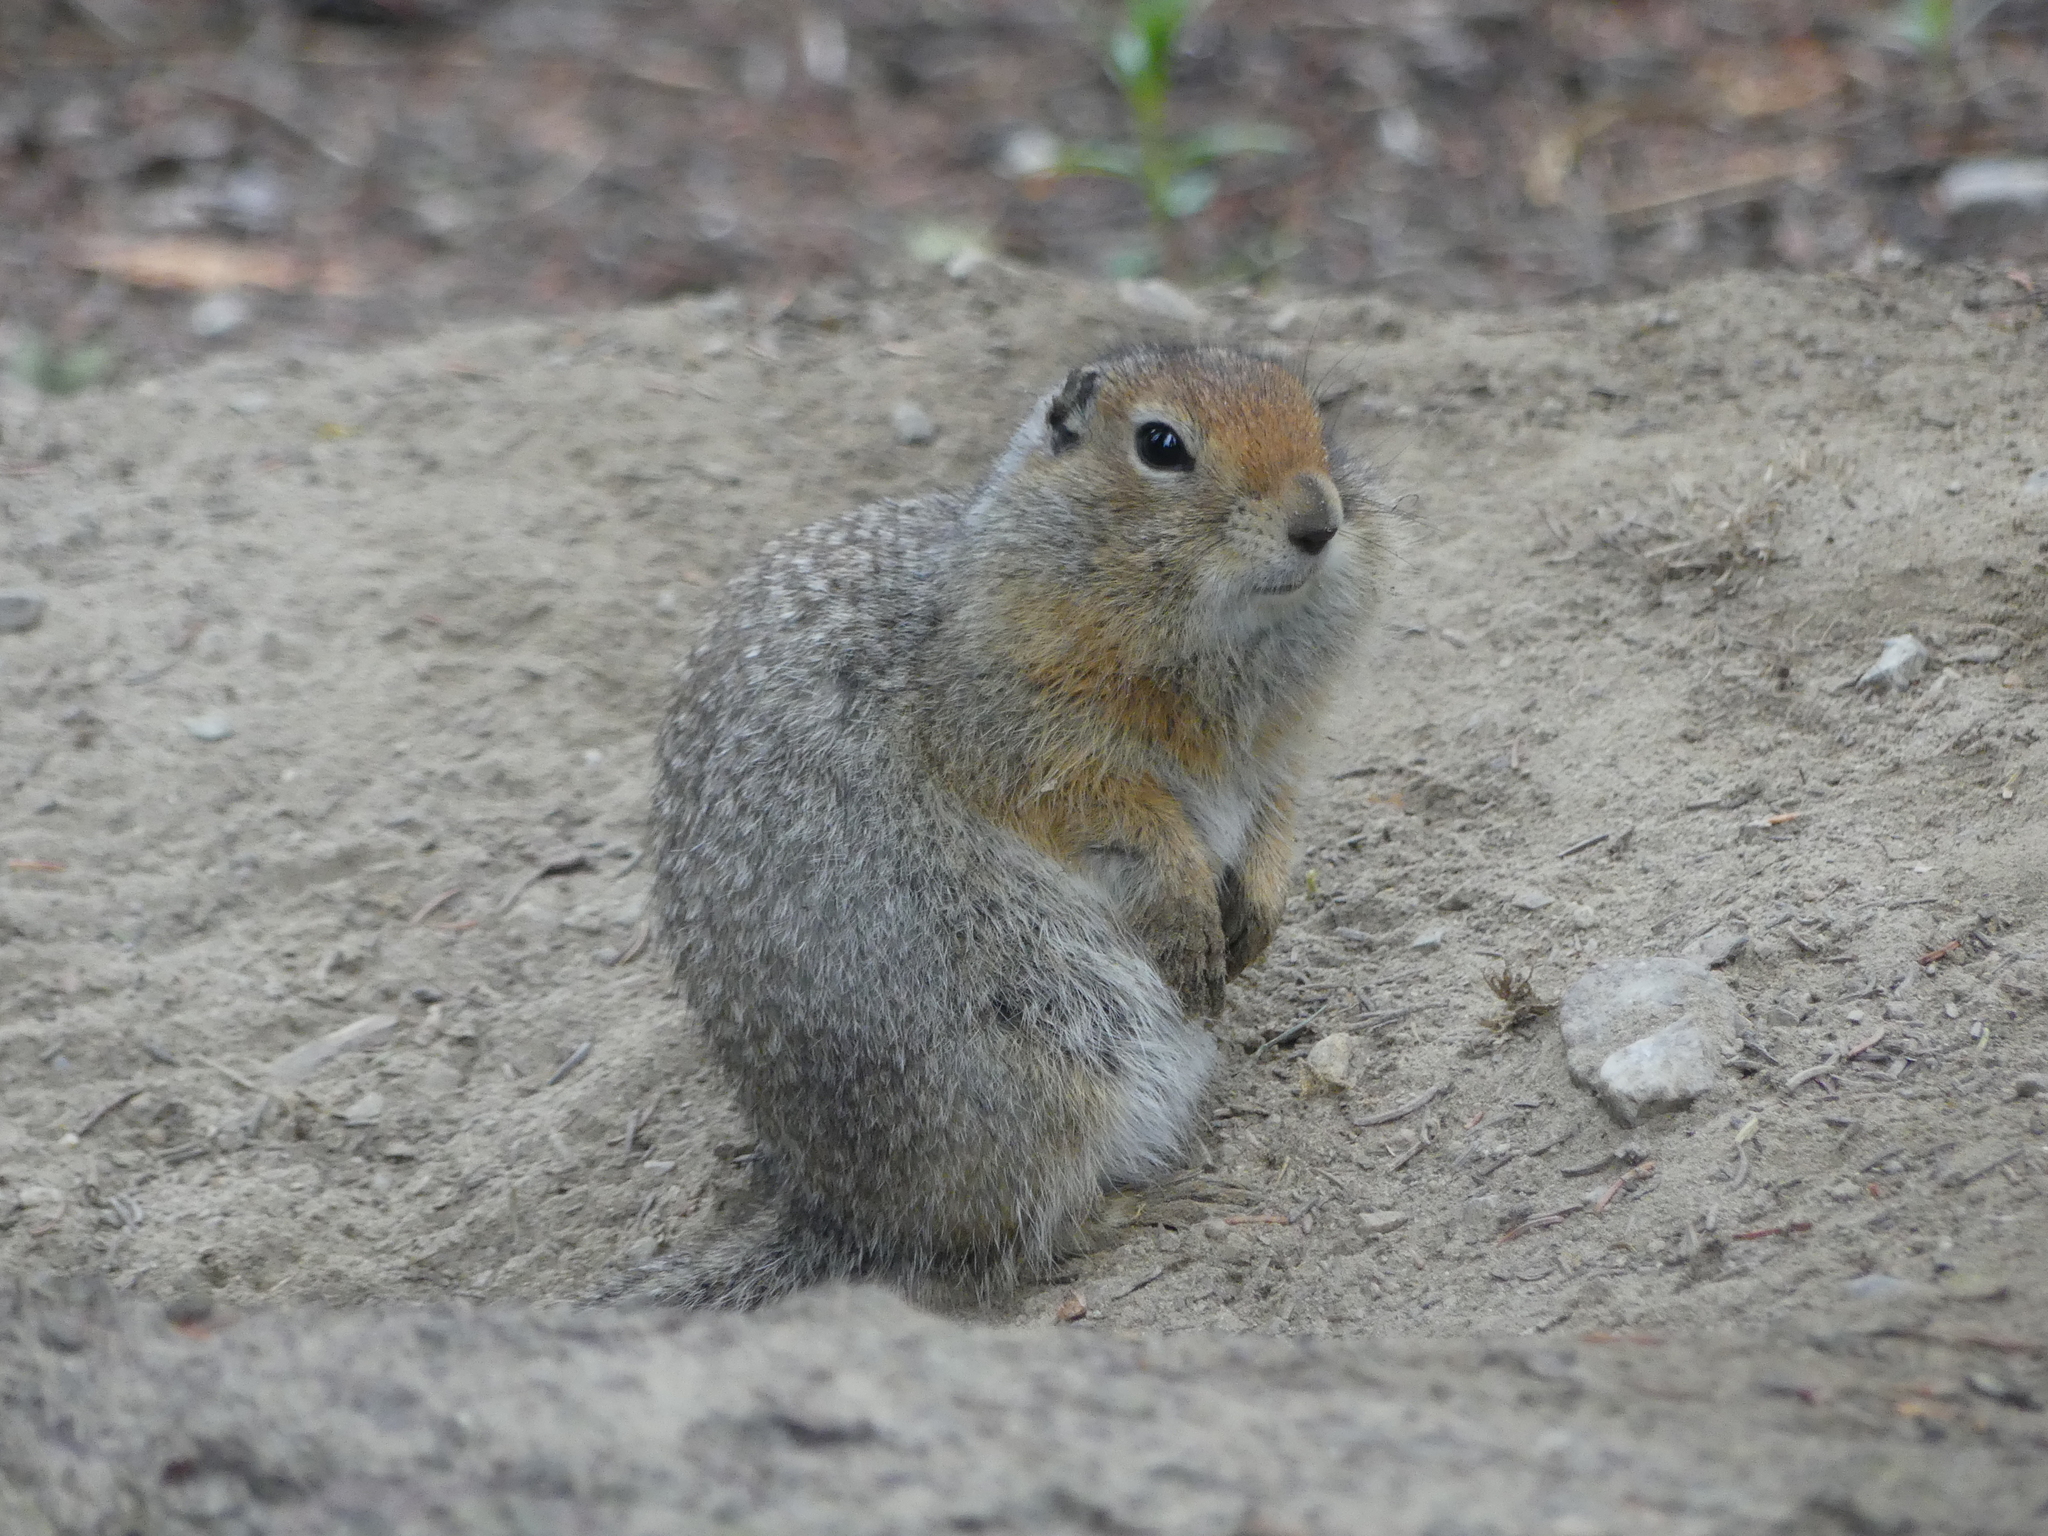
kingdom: Animalia
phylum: Chordata
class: Mammalia
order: Rodentia
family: Sciuridae
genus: Urocitellus
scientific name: Urocitellus parryii
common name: Arctic ground squirrel
